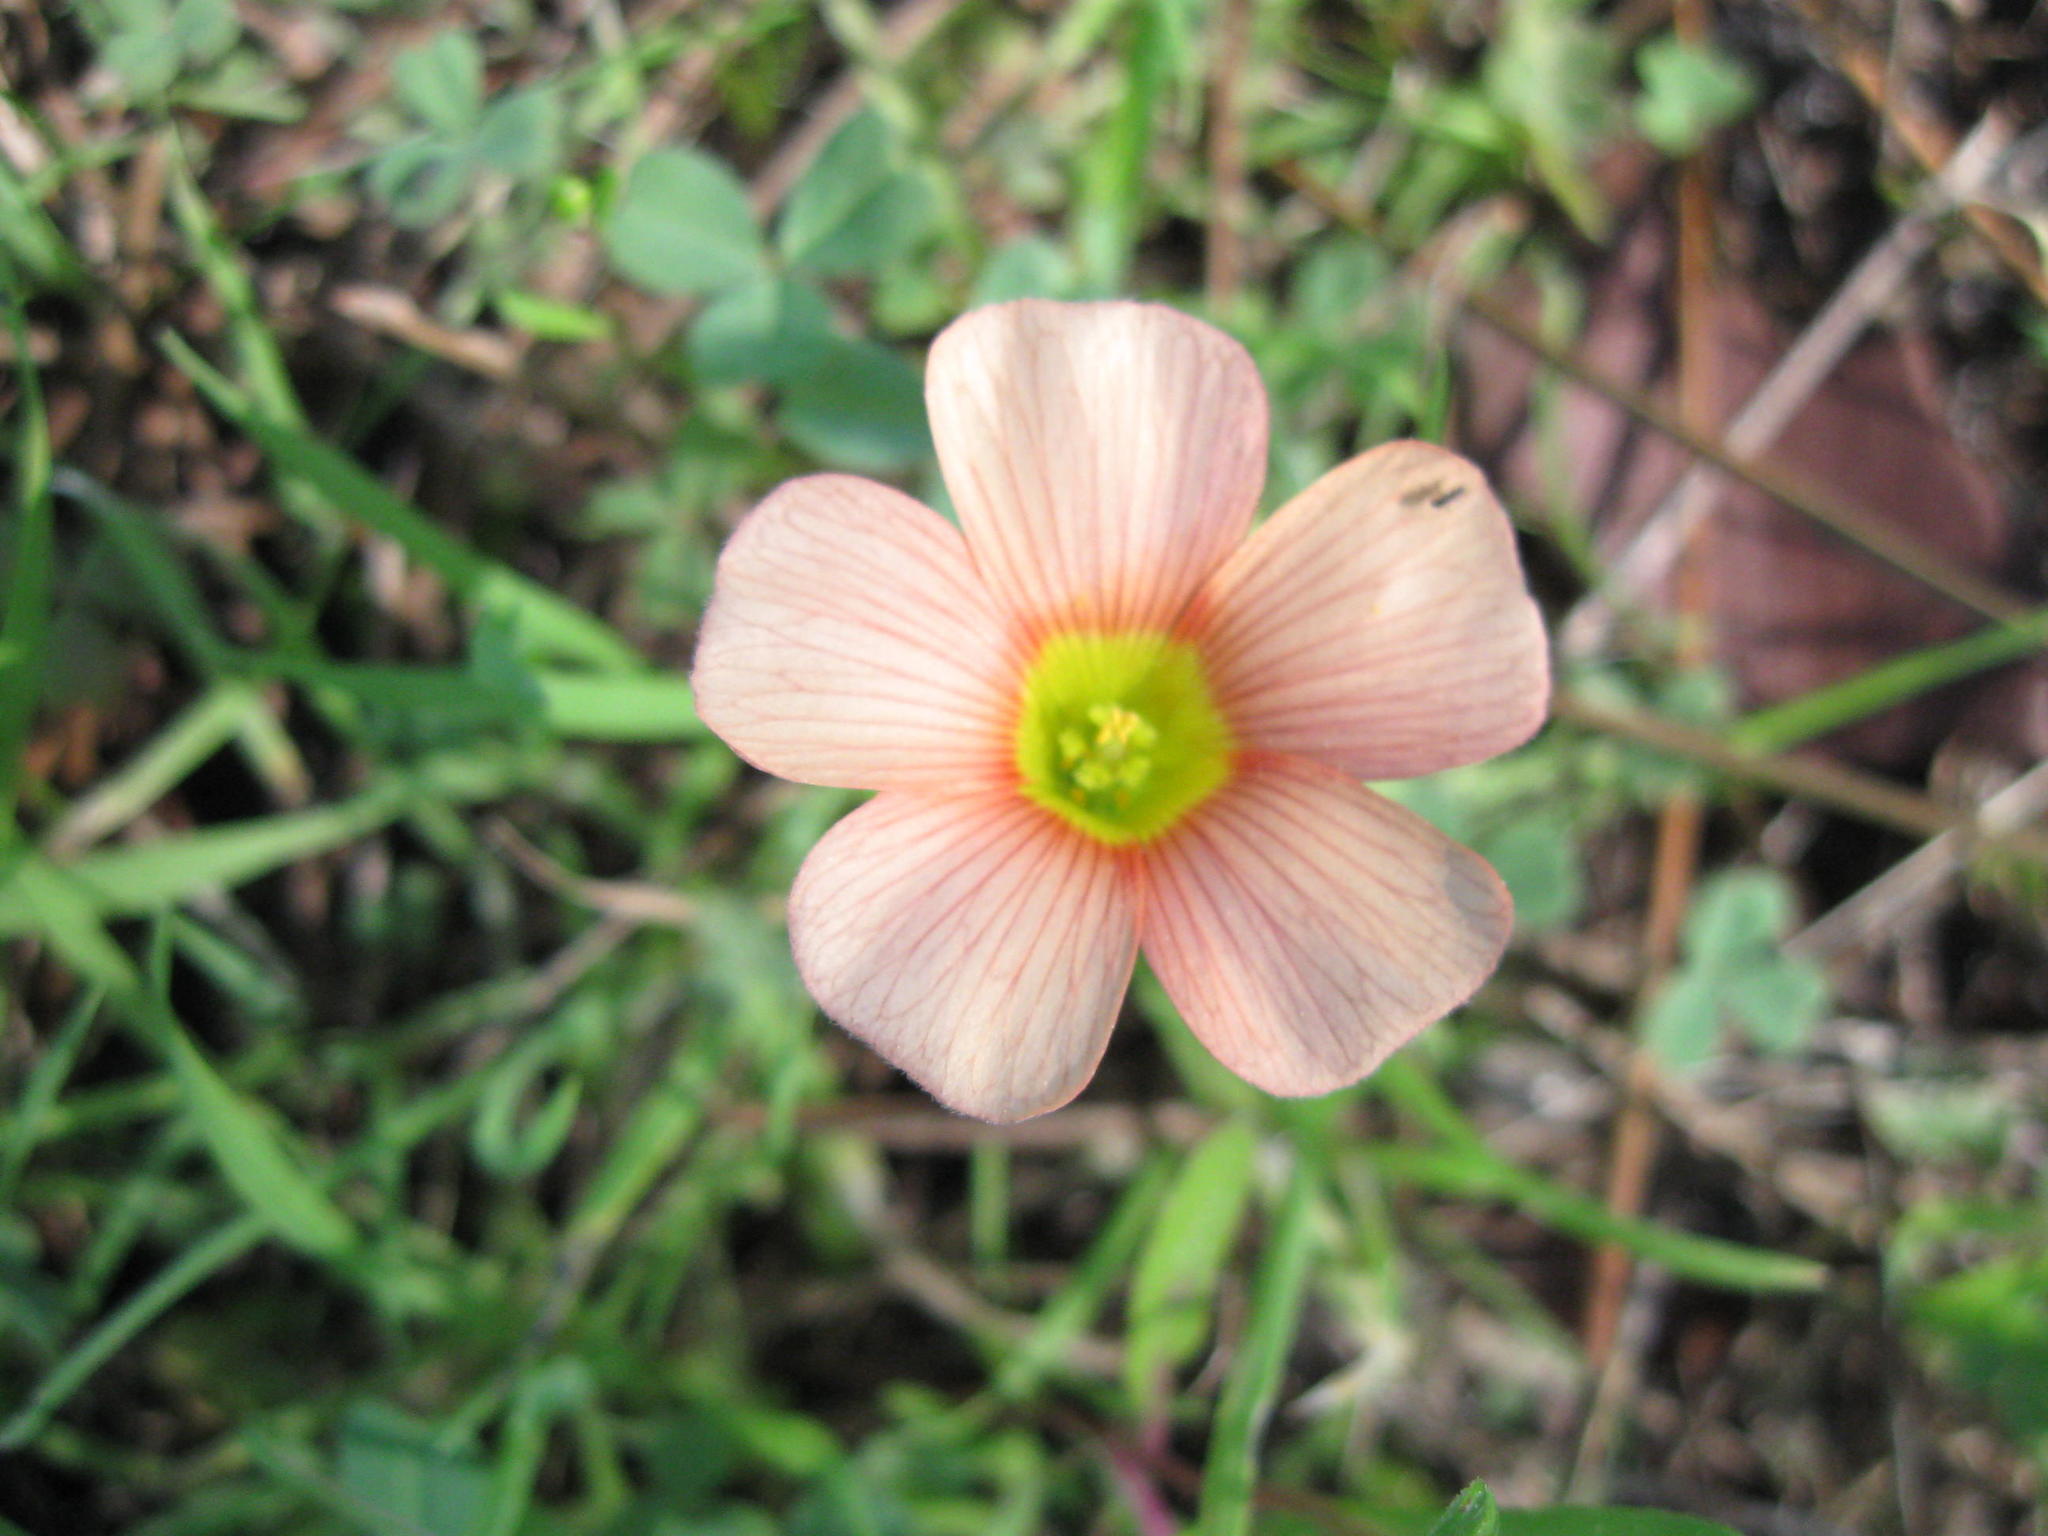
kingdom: Plantae
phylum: Tracheophyta
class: Magnoliopsida
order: Oxalidales
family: Oxalidaceae
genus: Oxalis
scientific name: Oxalis obtusa
